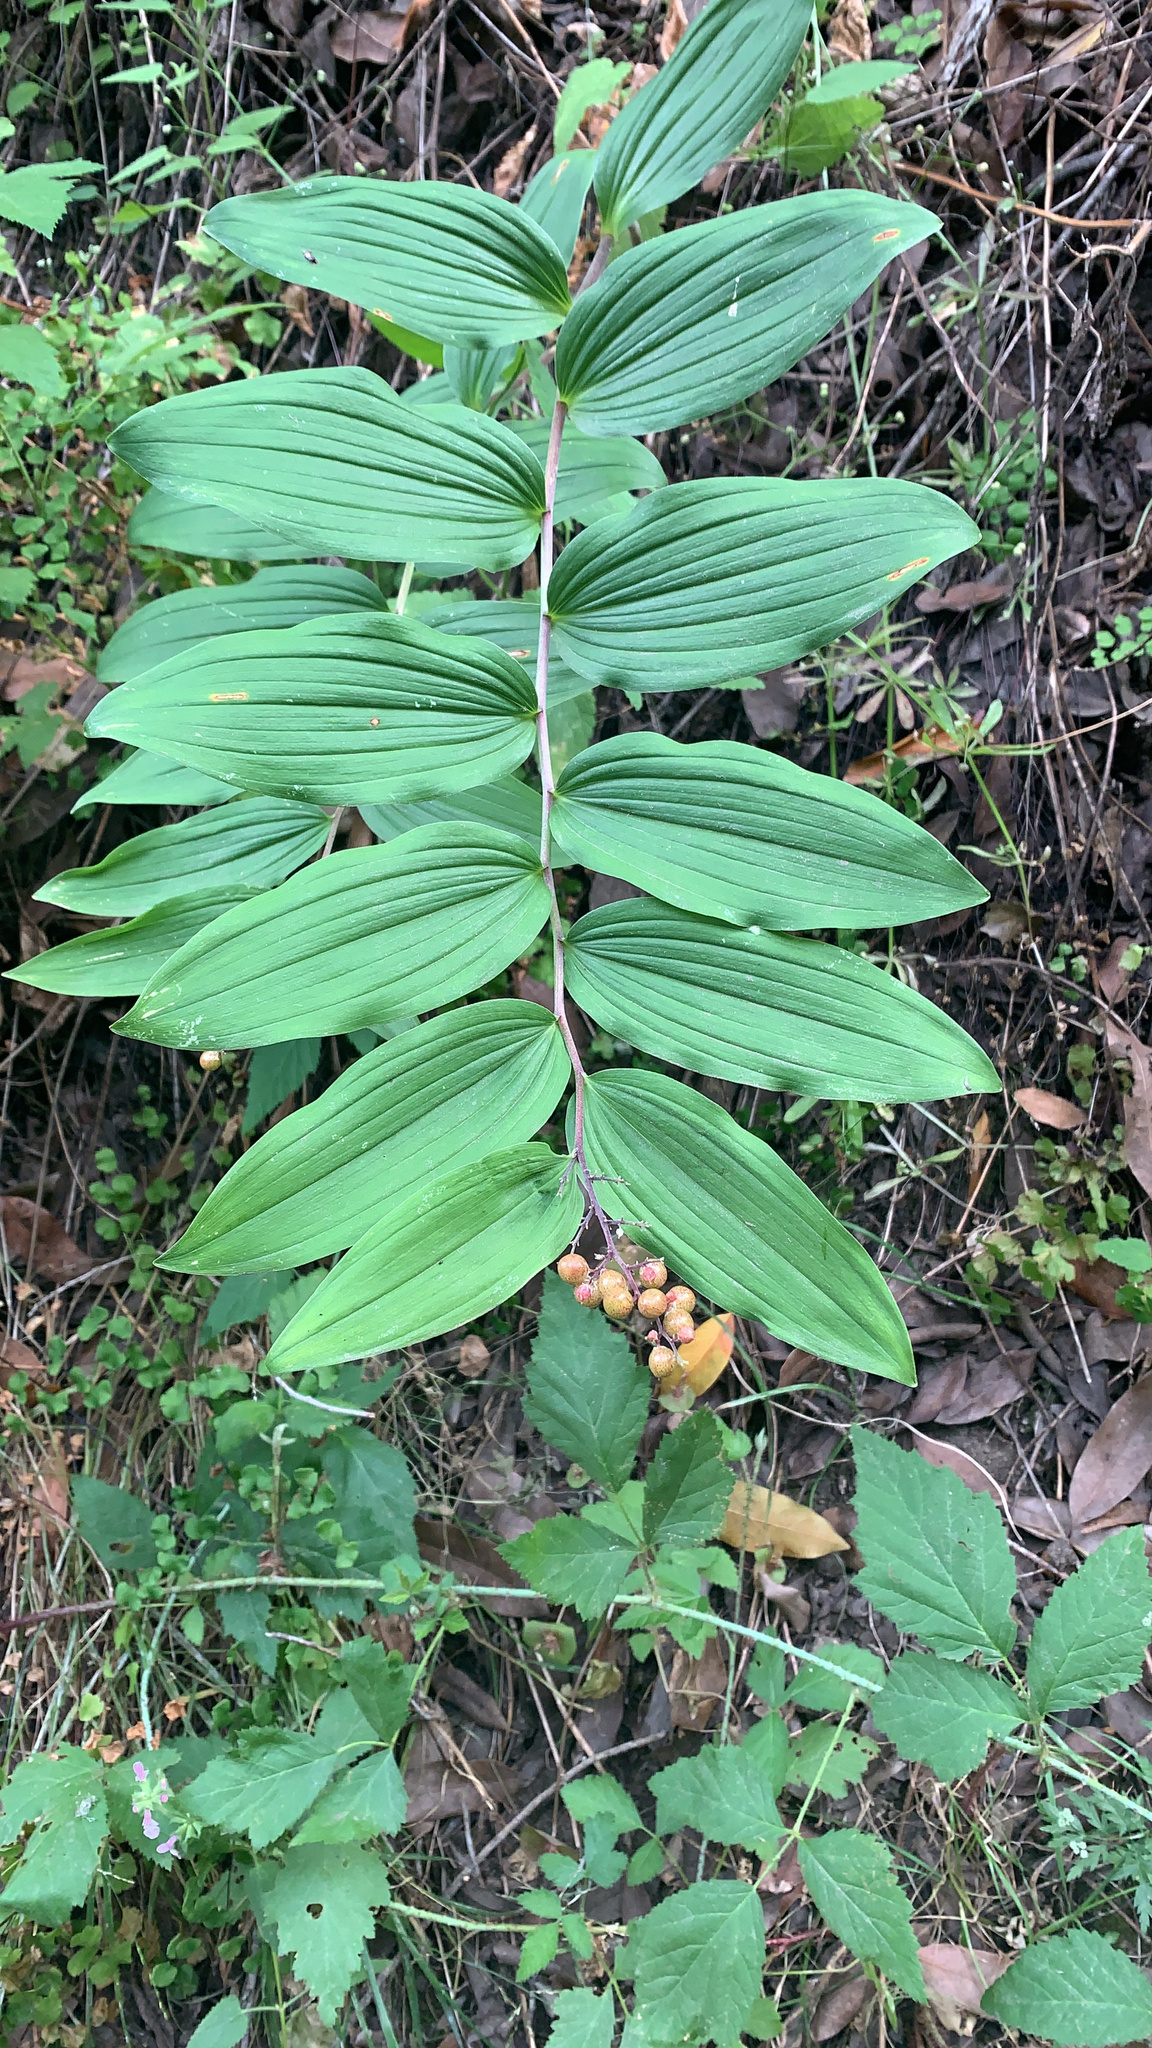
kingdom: Plantae
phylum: Tracheophyta
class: Liliopsida
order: Asparagales
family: Asparagaceae
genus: Maianthemum
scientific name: Maianthemum racemosum
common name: False spikenard
